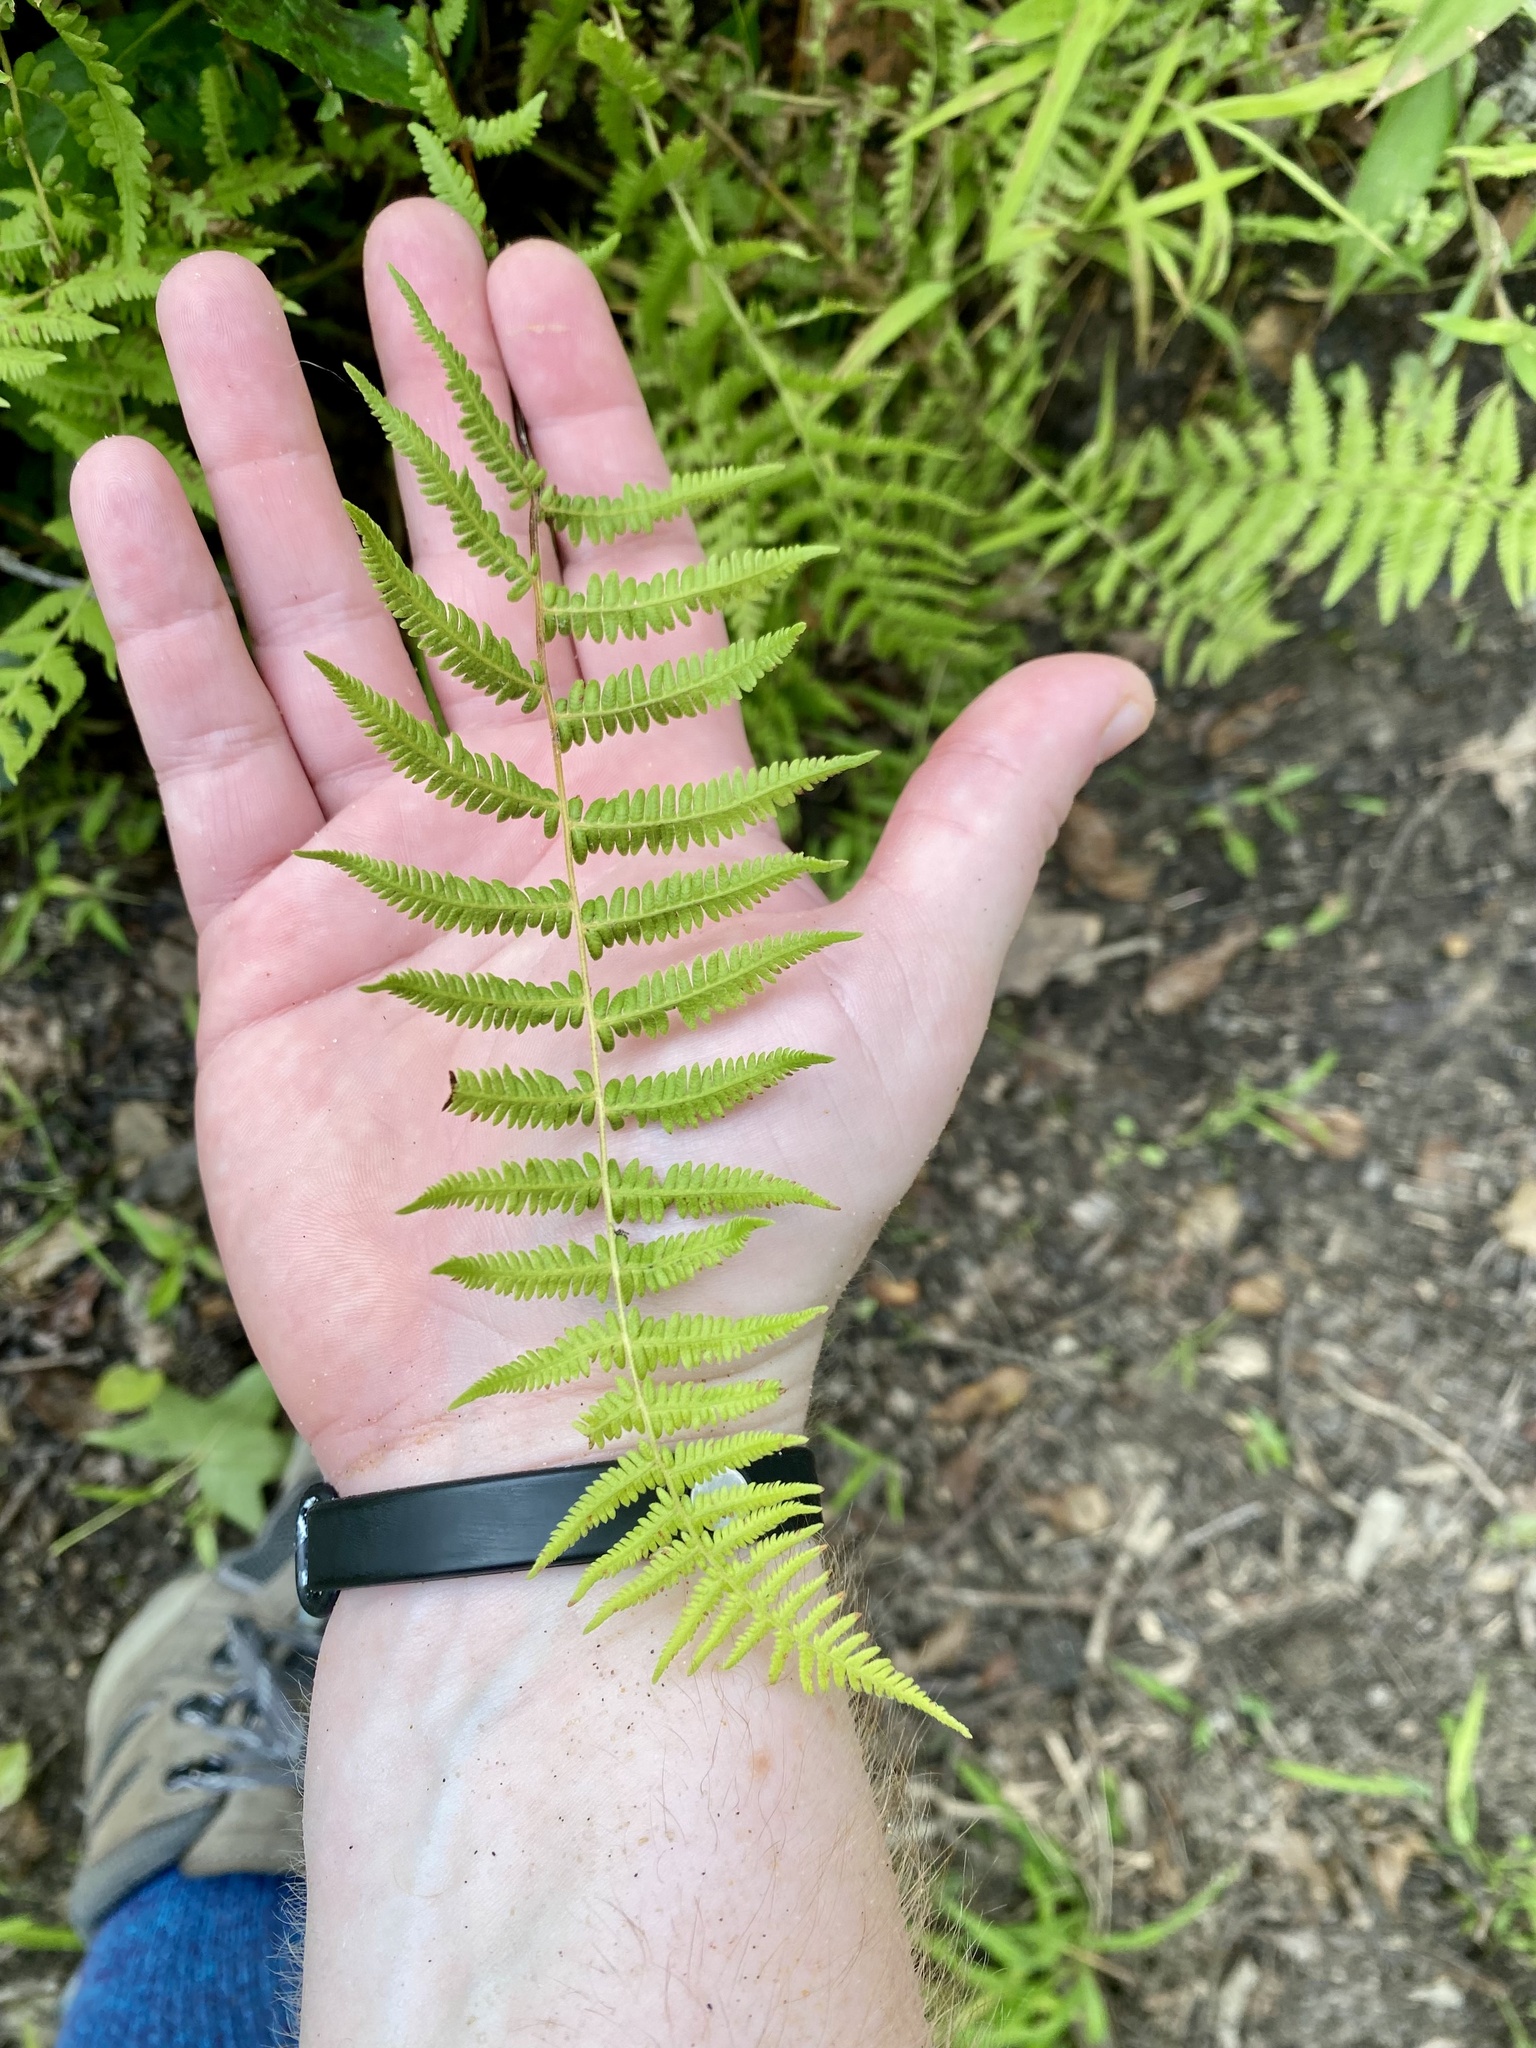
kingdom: Plantae
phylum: Tracheophyta
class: Polypodiopsida
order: Polypodiales
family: Thelypteridaceae
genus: Amauropelta
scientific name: Amauropelta noveboracensis
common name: New york fern
